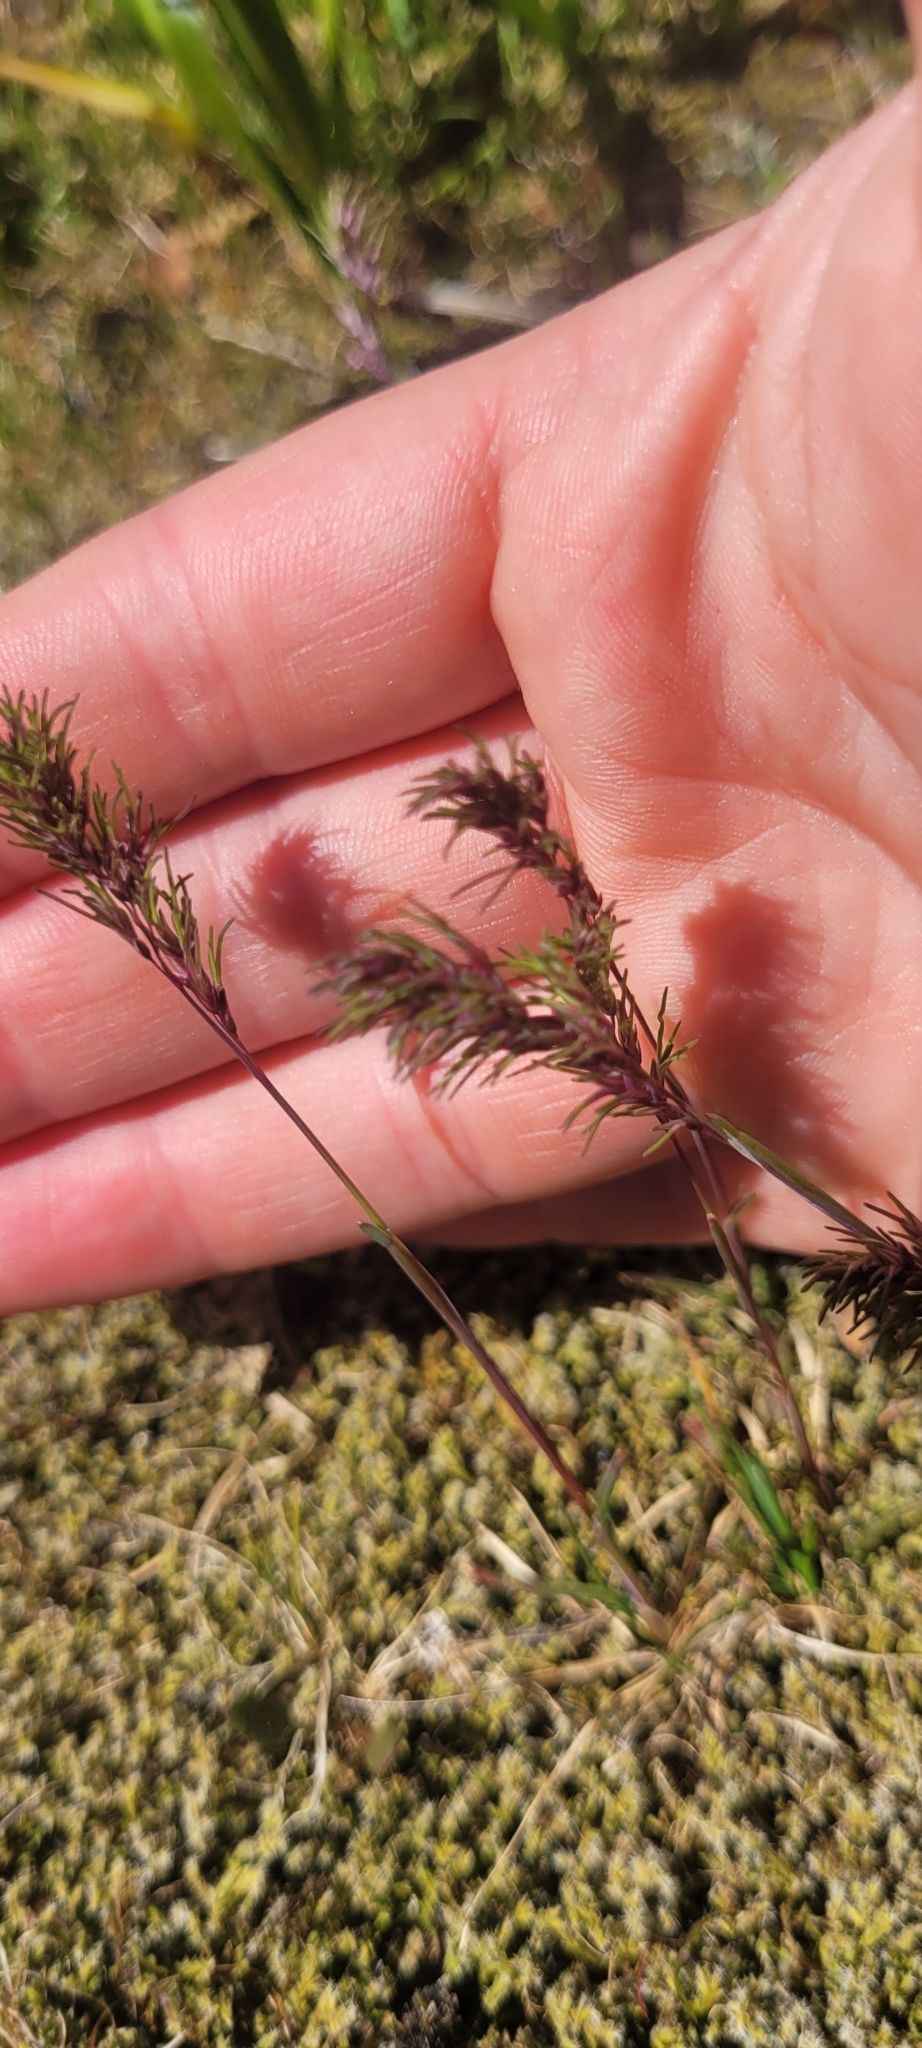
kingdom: Plantae
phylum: Tracheophyta
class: Liliopsida
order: Poales
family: Poaceae
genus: Poa
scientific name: Poa bulbosa
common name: Bulbous bluegrass
